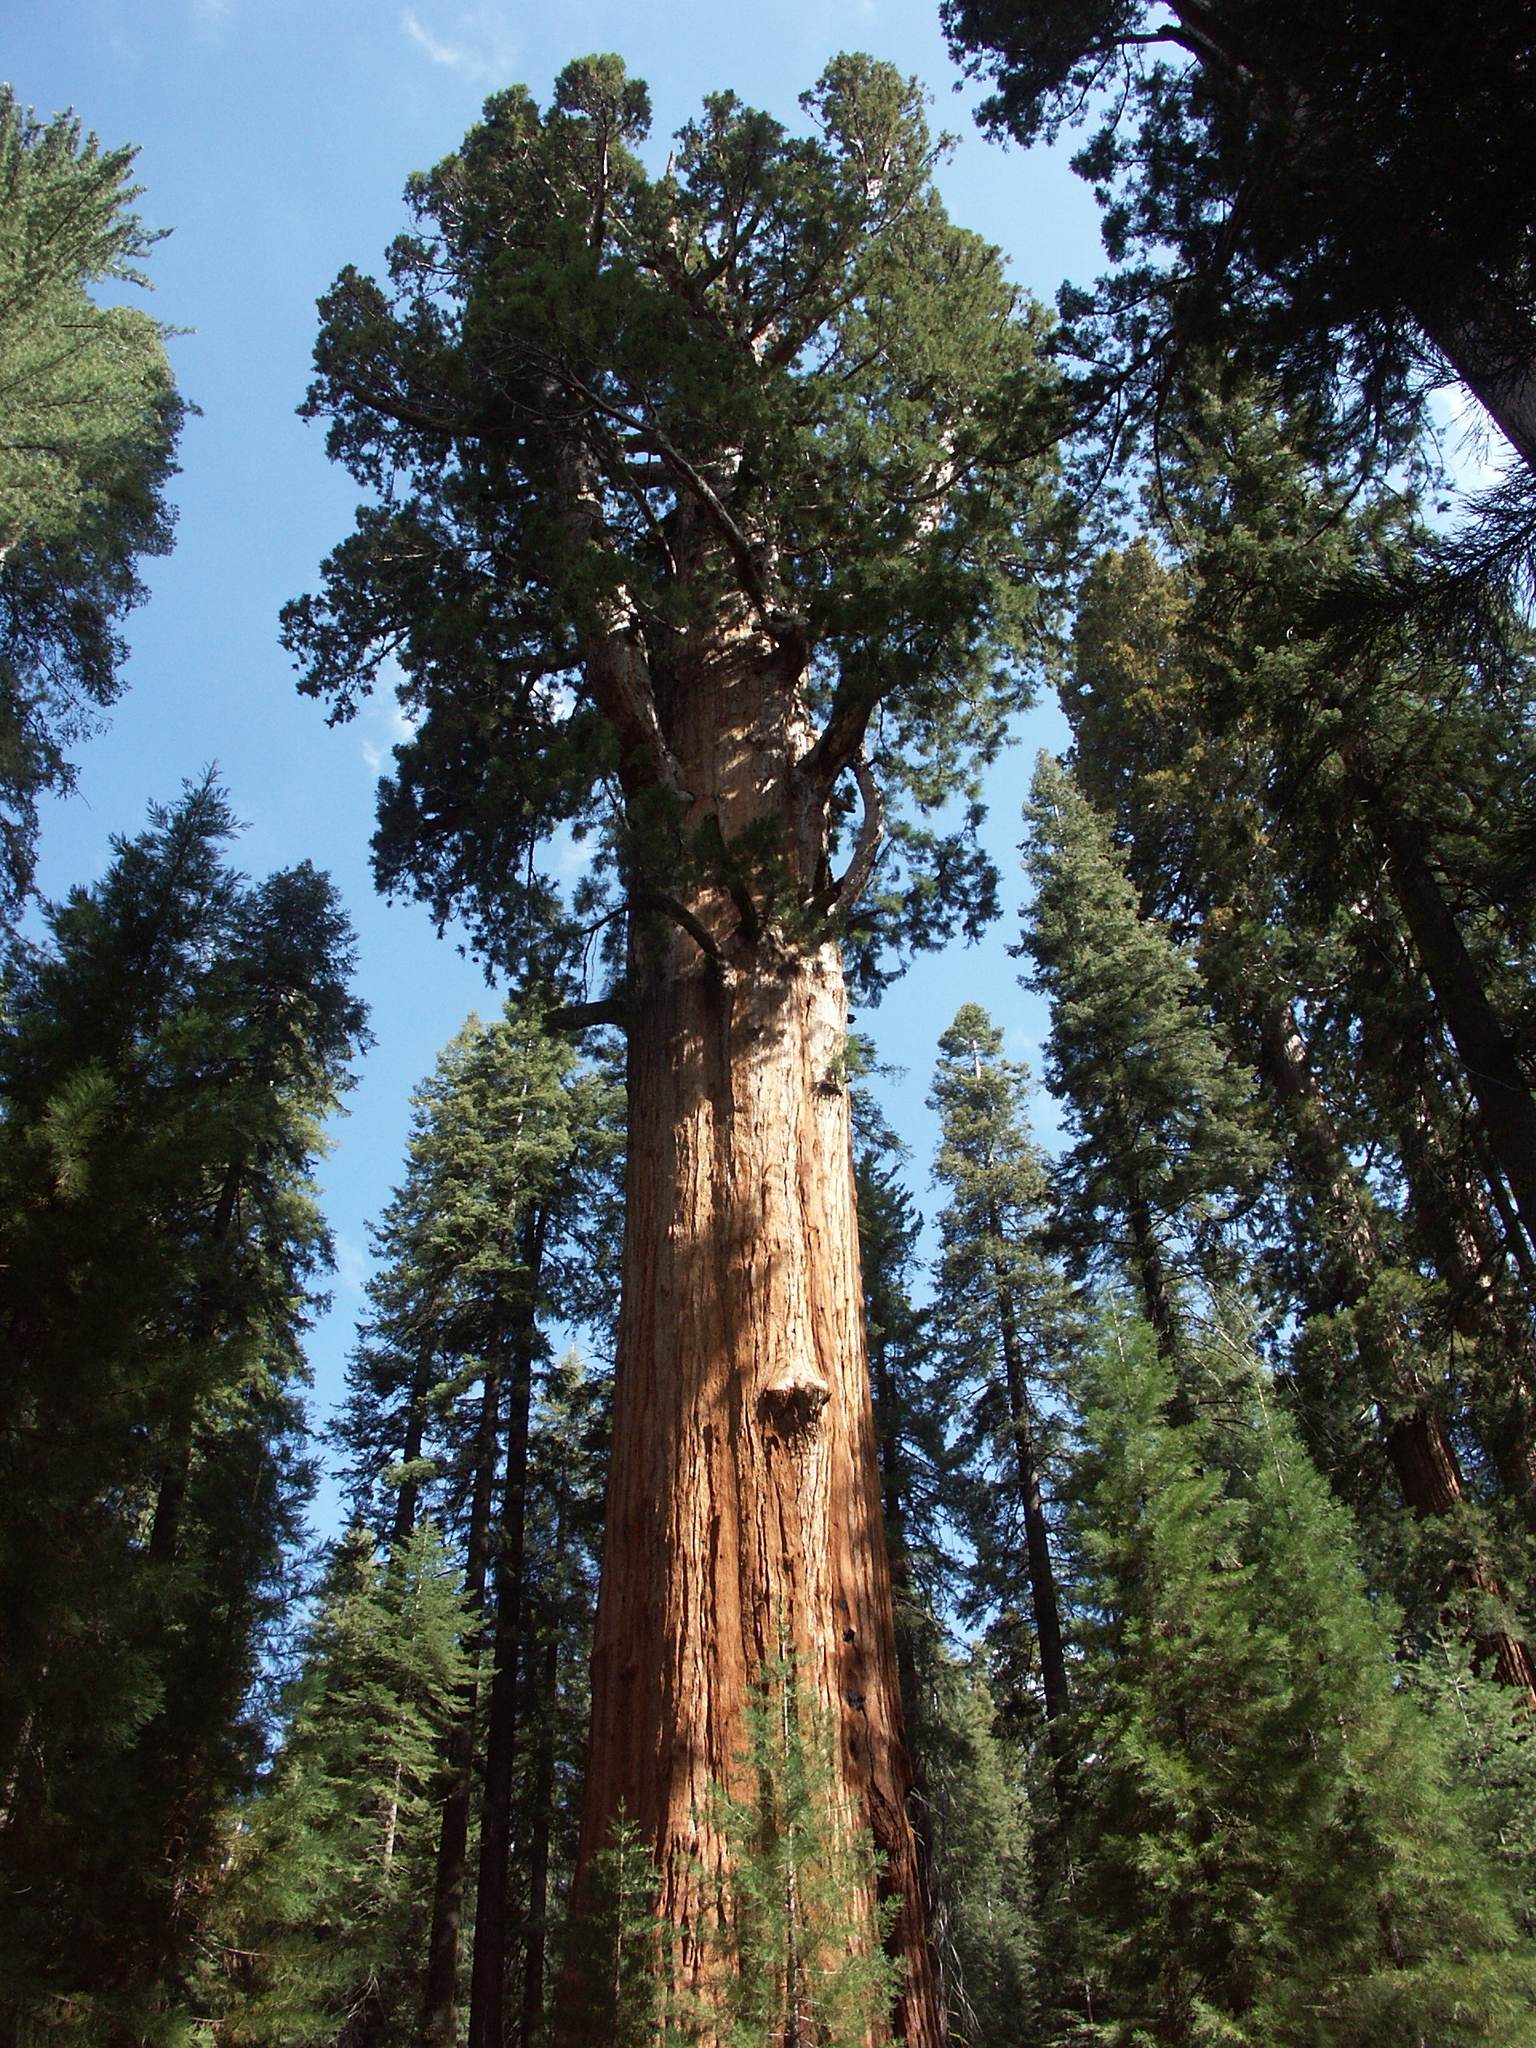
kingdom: Plantae
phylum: Tracheophyta
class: Pinopsida
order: Pinales
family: Cupressaceae
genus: Sequoiadendron
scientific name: Sequoiadendron giganteum
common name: Wellingtonia
